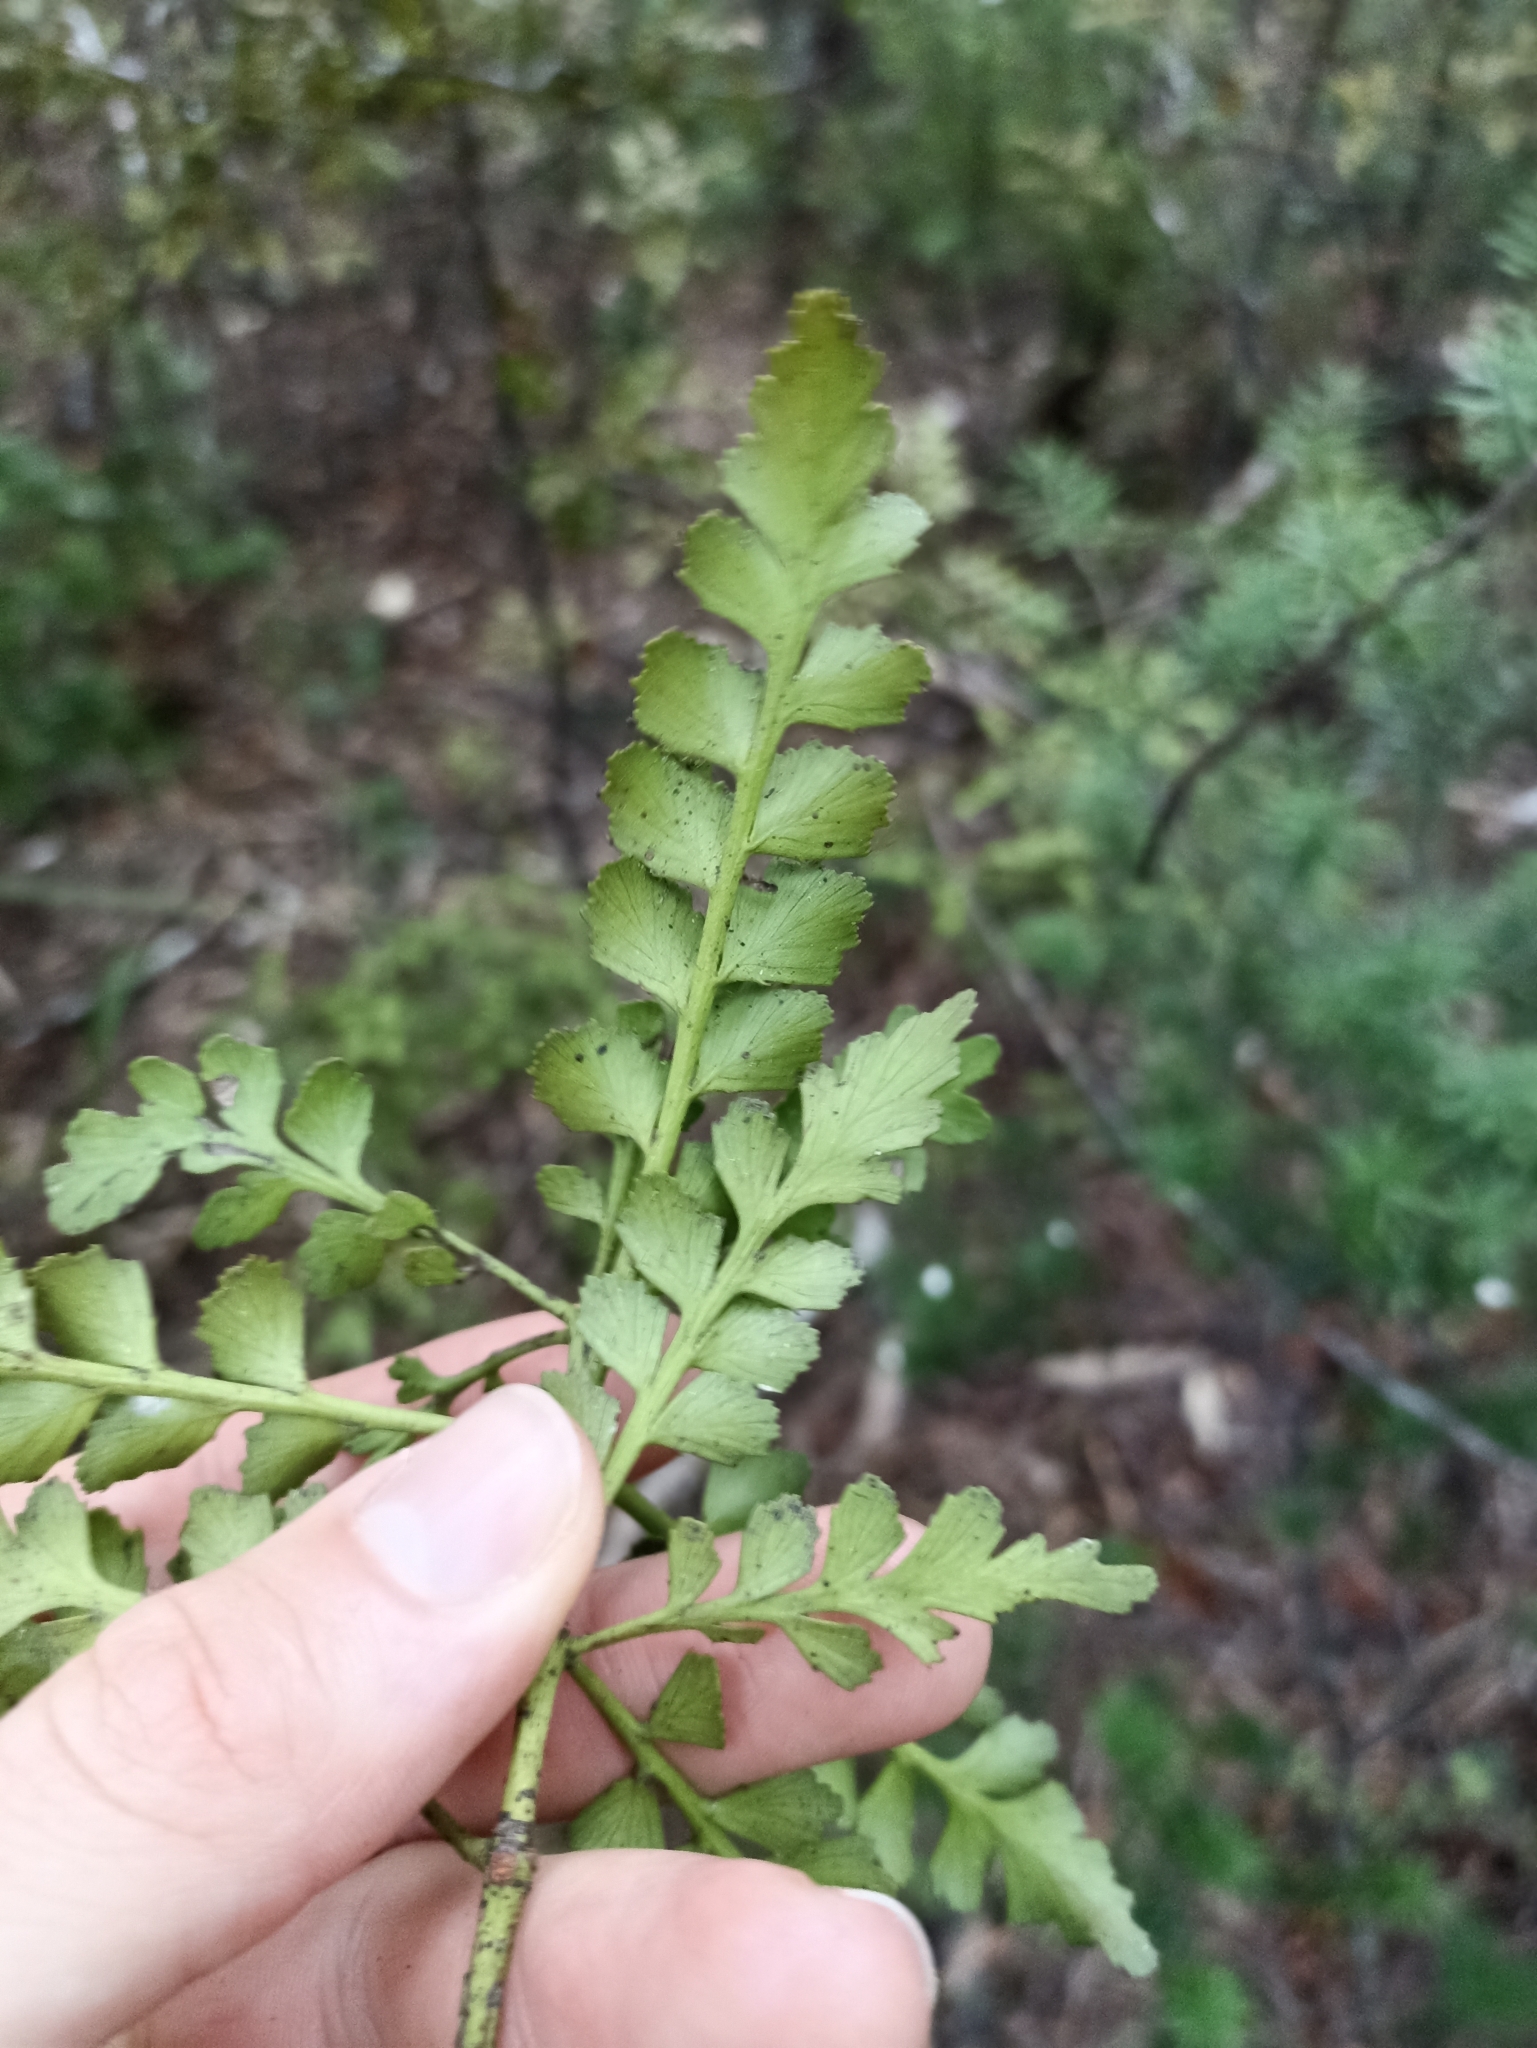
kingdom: Plantae
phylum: Tracheophyta
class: Pinopsida
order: Pinales
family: Phyllocladaceae
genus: Phyllocladus
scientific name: Phyllocladus trichomanoides
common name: Celery pine
